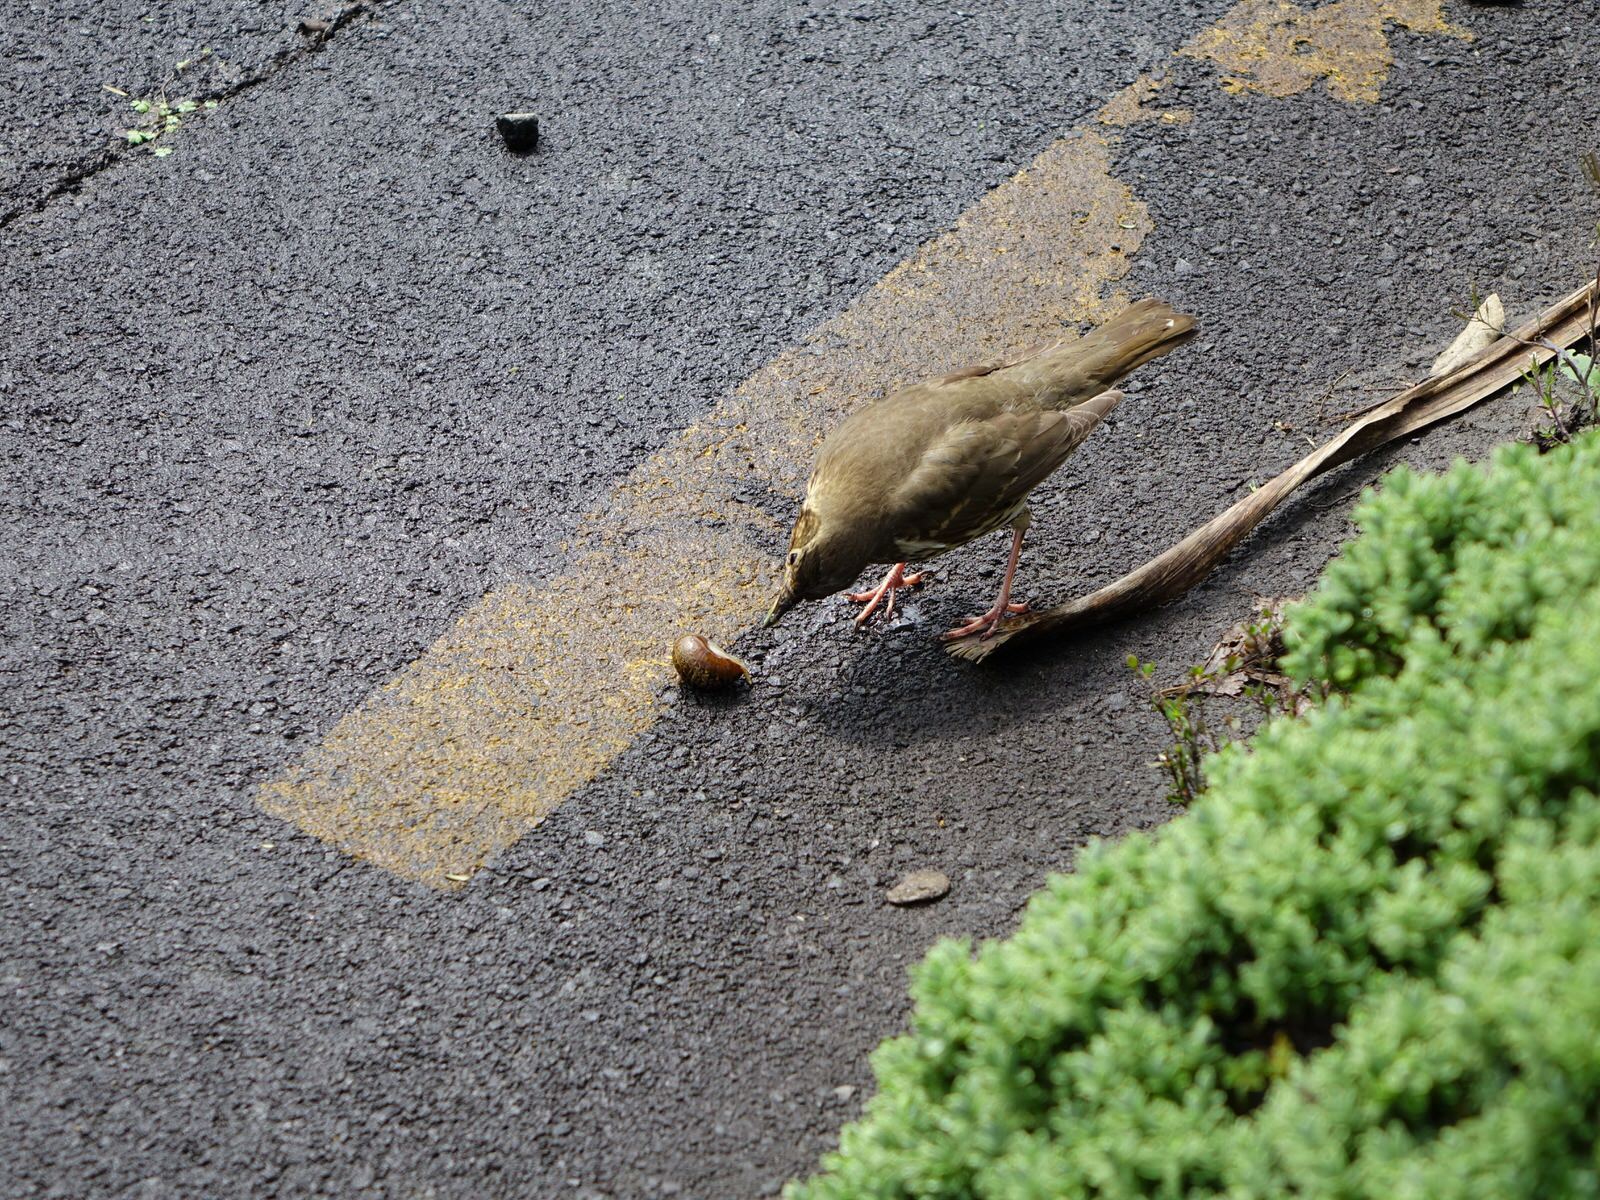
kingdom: Animalia
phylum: Chordata
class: Aves
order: Passeriformes
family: Turdidae
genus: Turdus
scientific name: Turdus philomelos
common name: Song thrush
